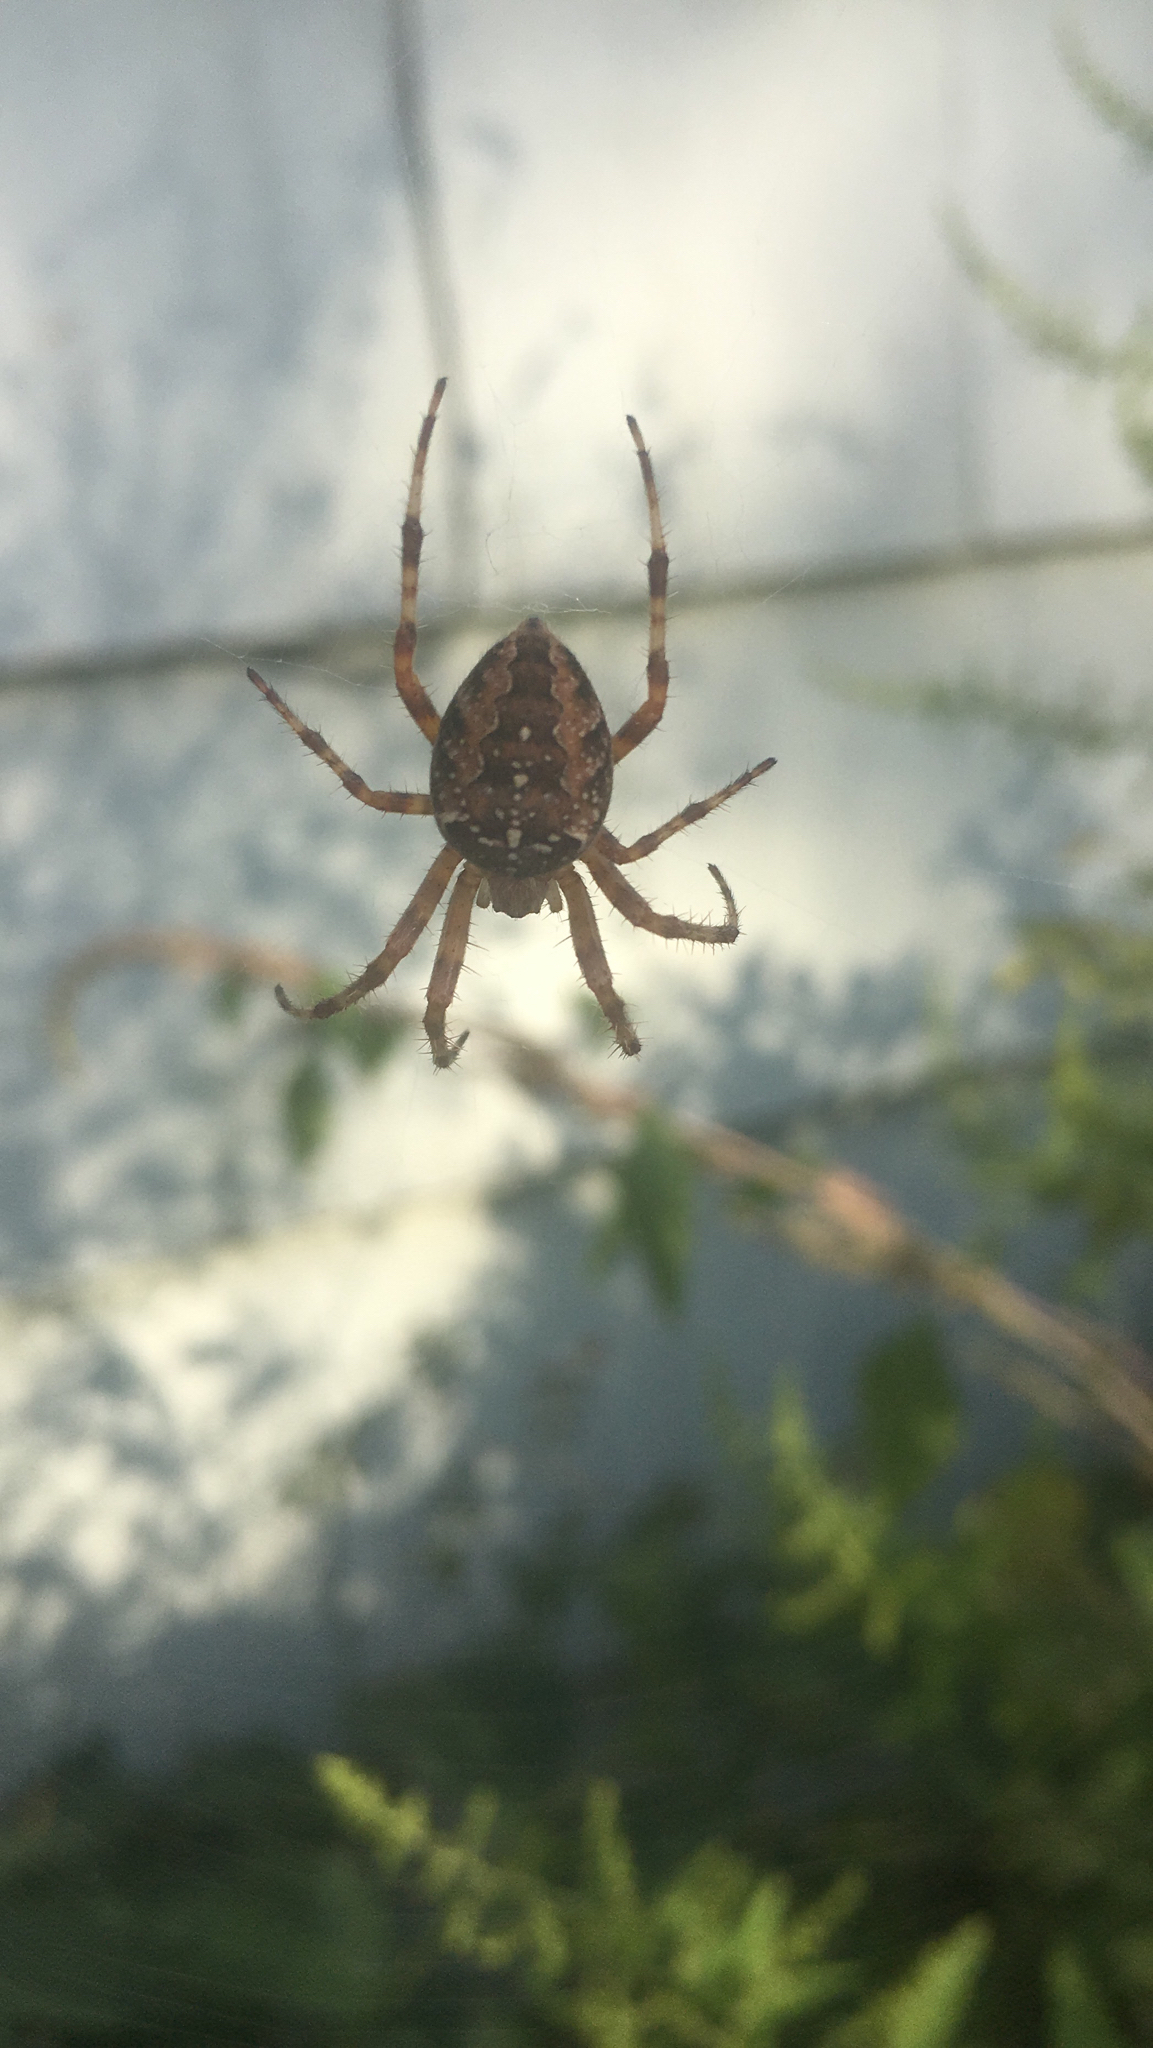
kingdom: Animalia
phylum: Arthropoda
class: Arachnida
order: Araneae
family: Araneidae
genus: Araneus
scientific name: Araneus diadematus
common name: Cross orbweaver
